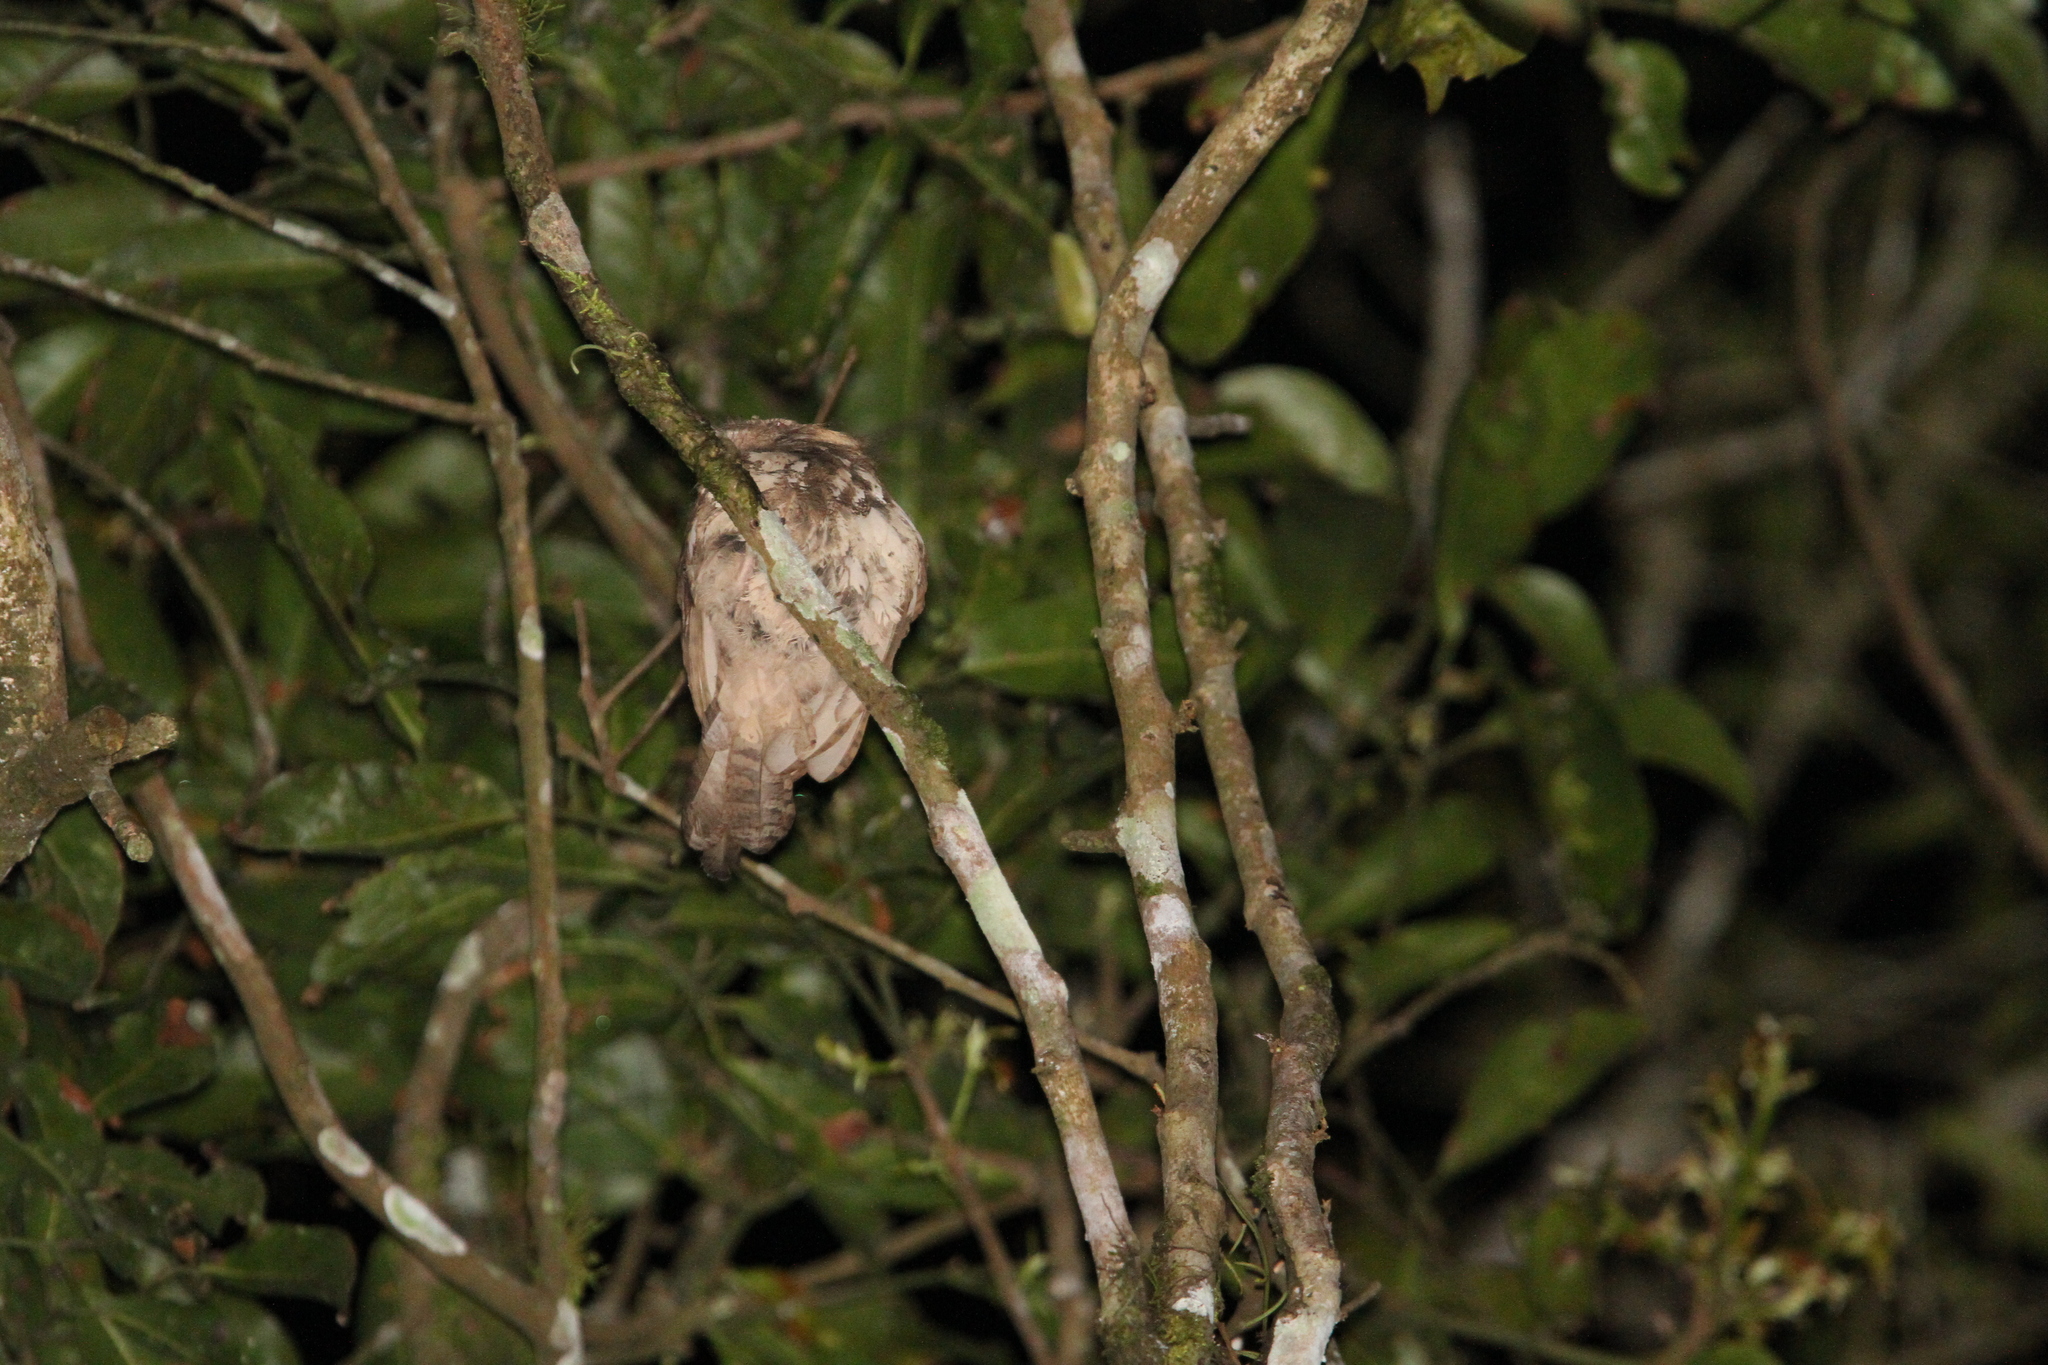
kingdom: Animalia
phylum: Chordata
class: Aves
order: Caprimulgiformes
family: Podargidae
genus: Batrachostomus
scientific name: Batrachostomus javensis
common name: Javan frogmouth
